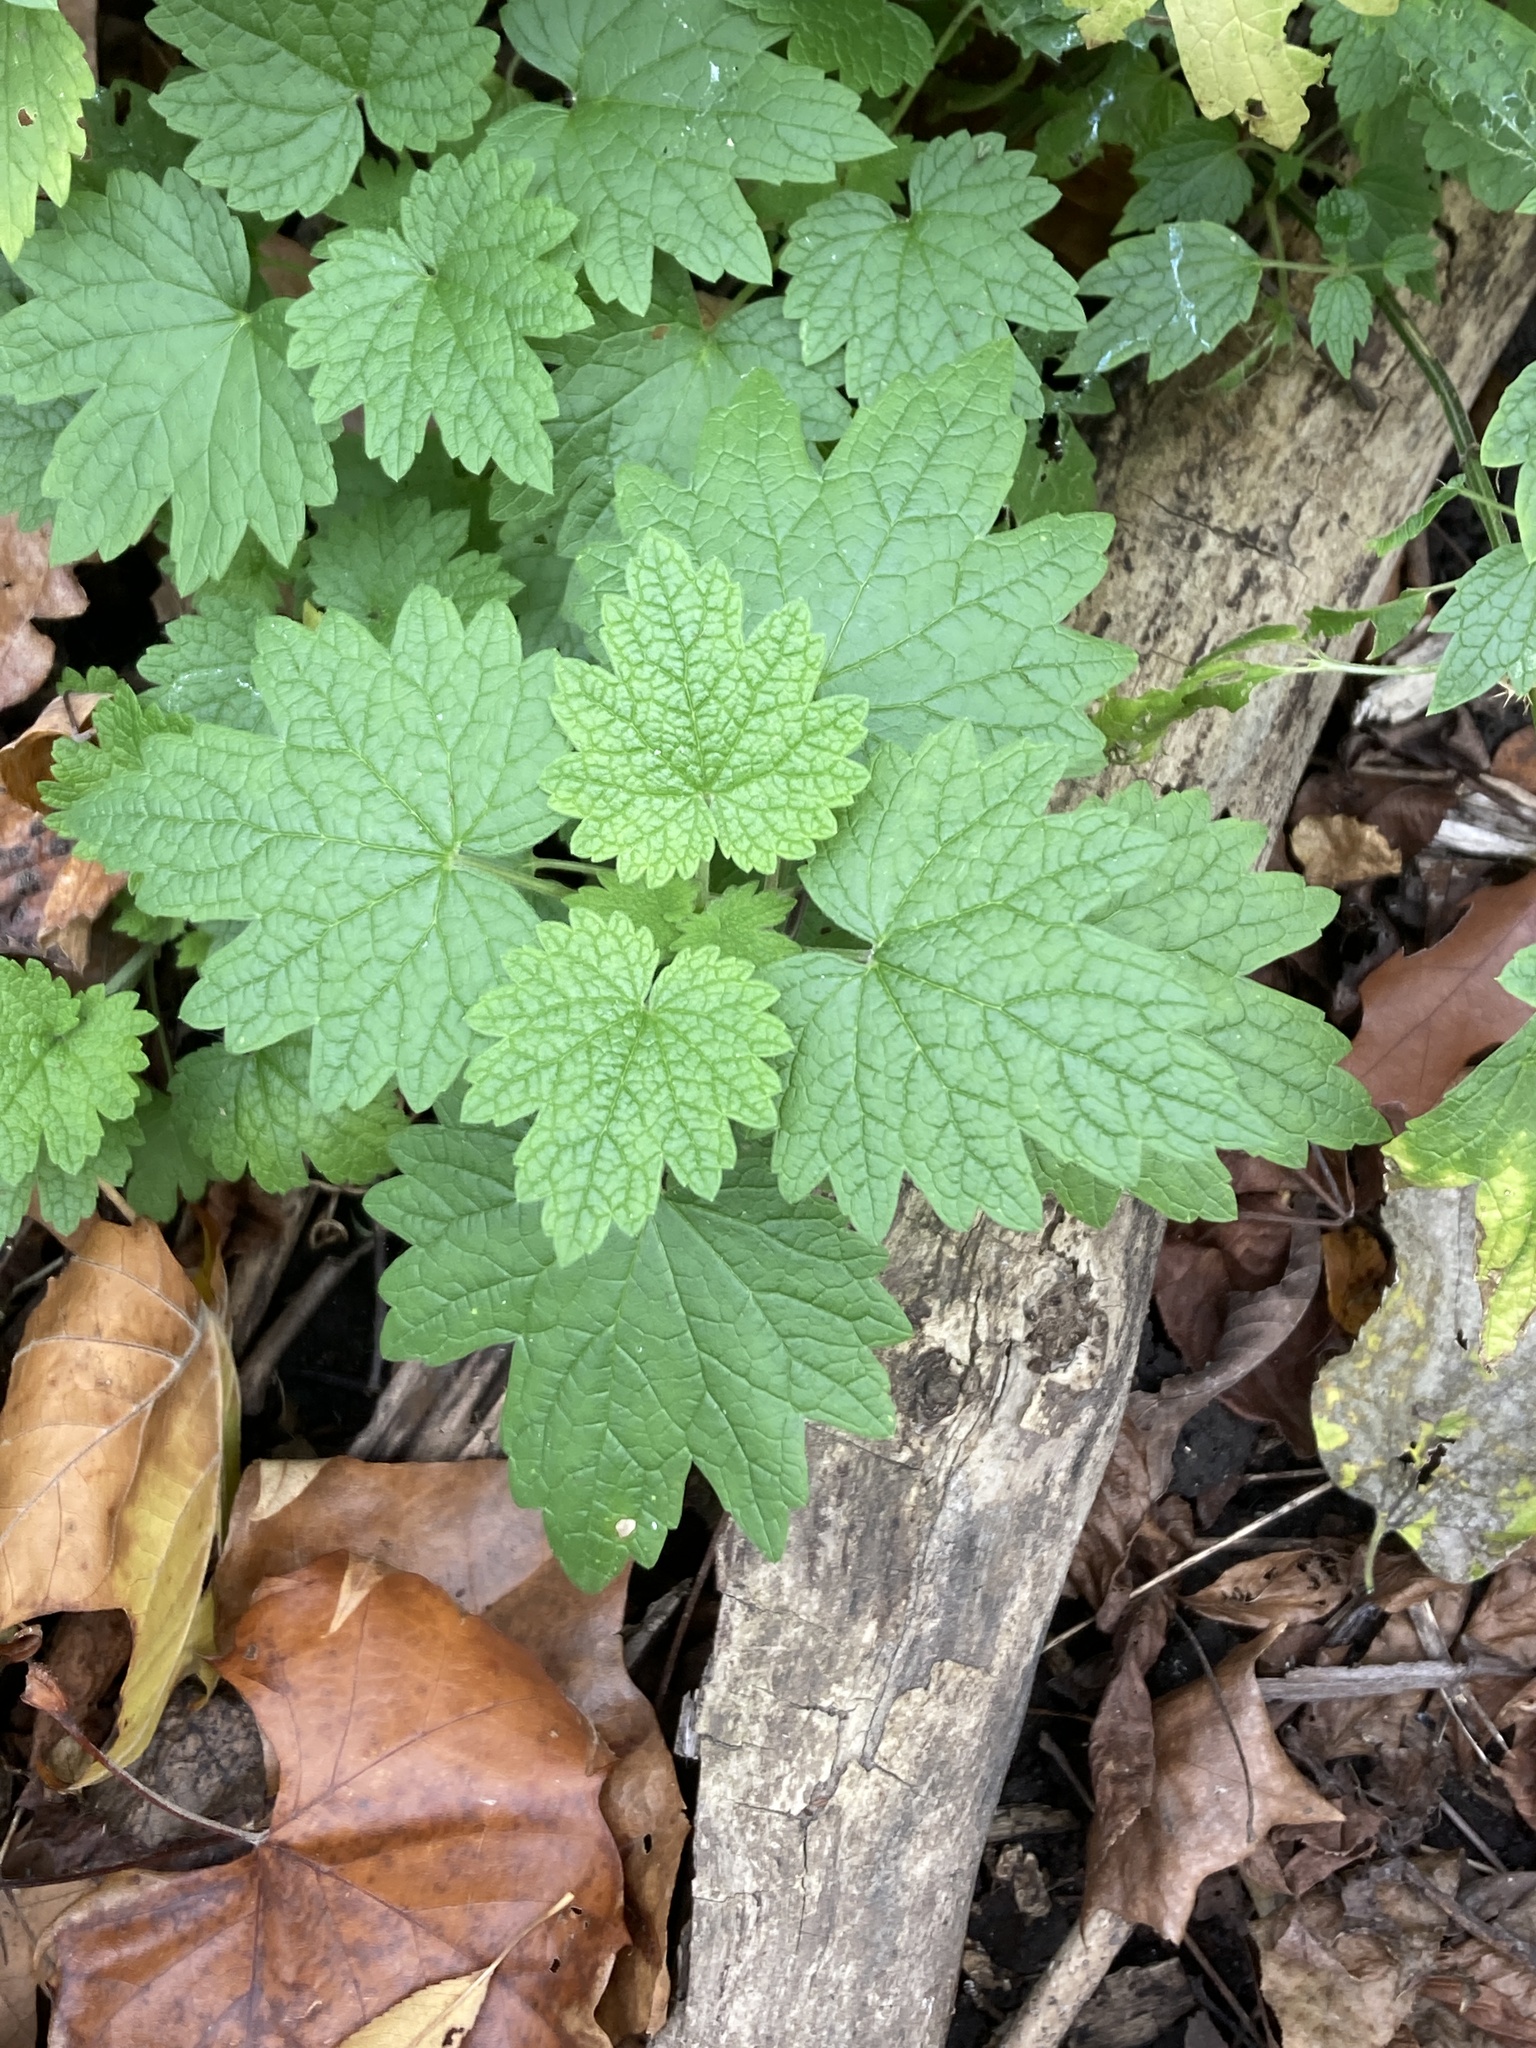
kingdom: Plantae
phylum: Tracheophyta
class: Magnoliopsida
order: Lamiales
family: Lamiaceae
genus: Leonurus
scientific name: Leonurus cardiaca
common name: Motherwort
